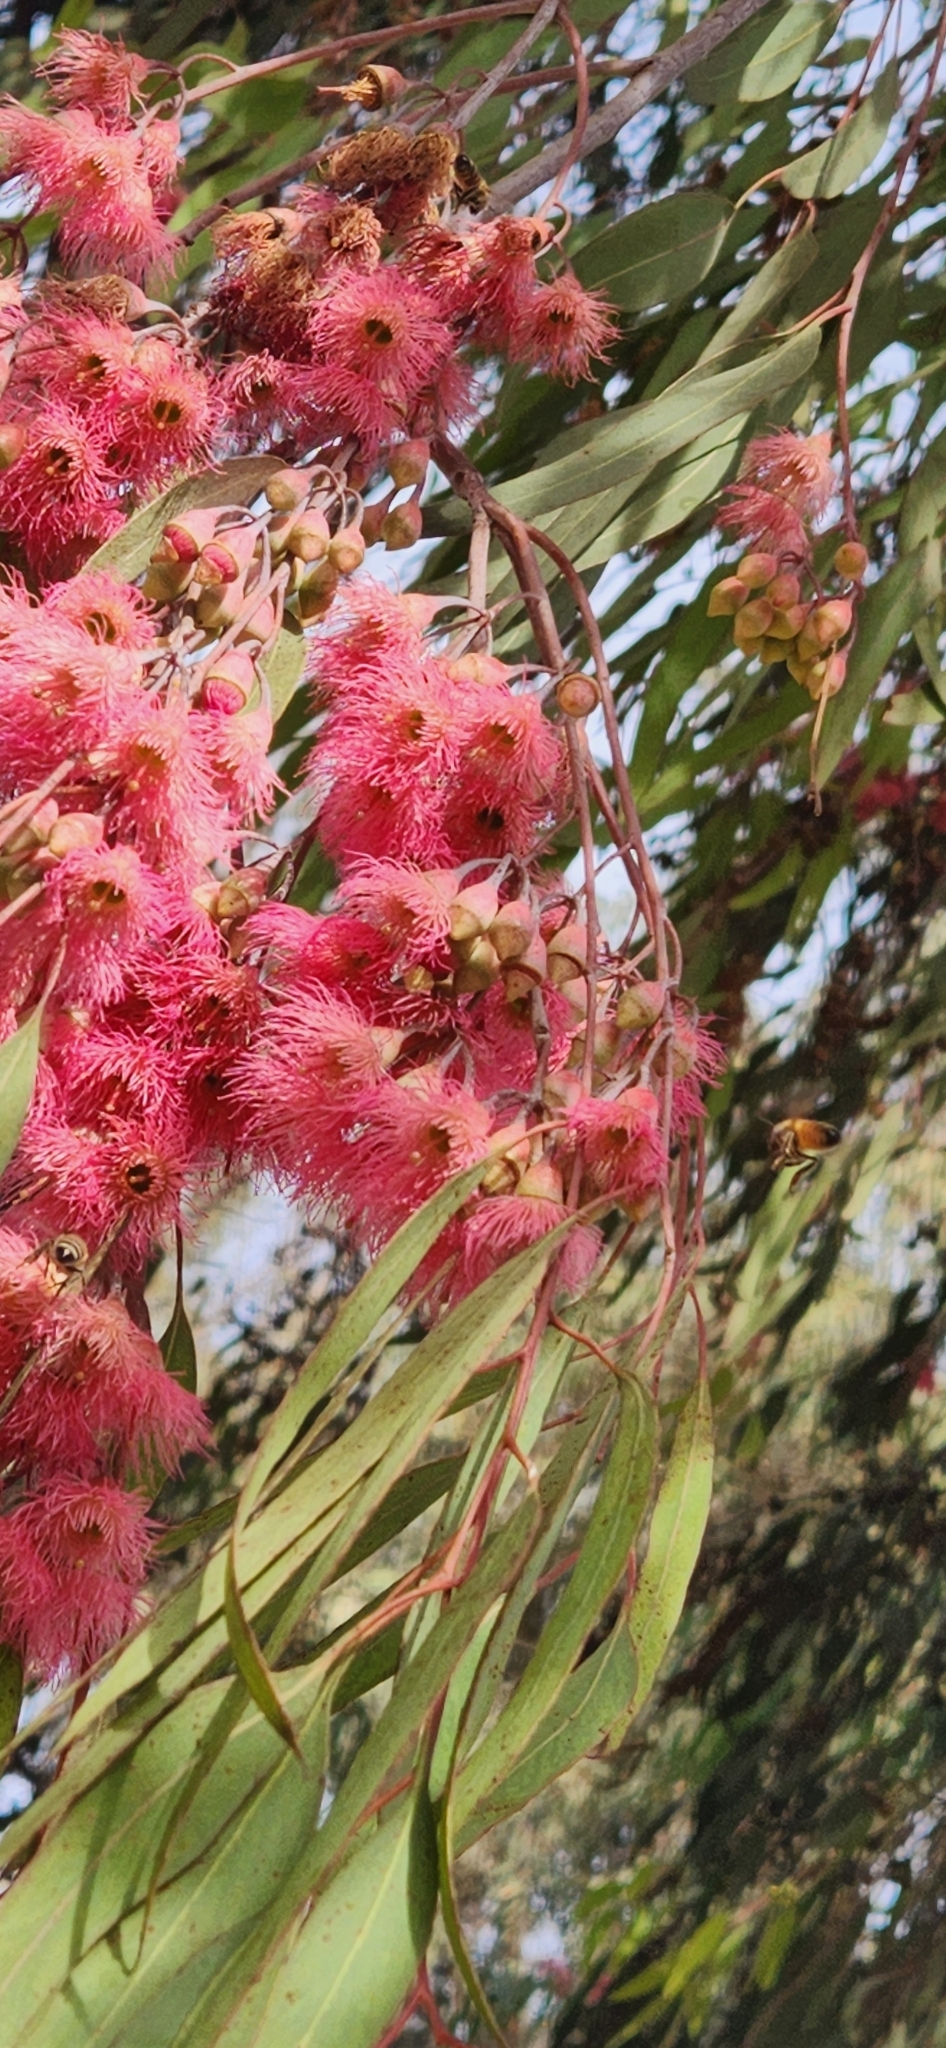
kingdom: Animalia
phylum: Arthropoda
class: Insecta
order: Hymenoptera
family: Apidae
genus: Apis
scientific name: Apis mellifera
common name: Honey bee
